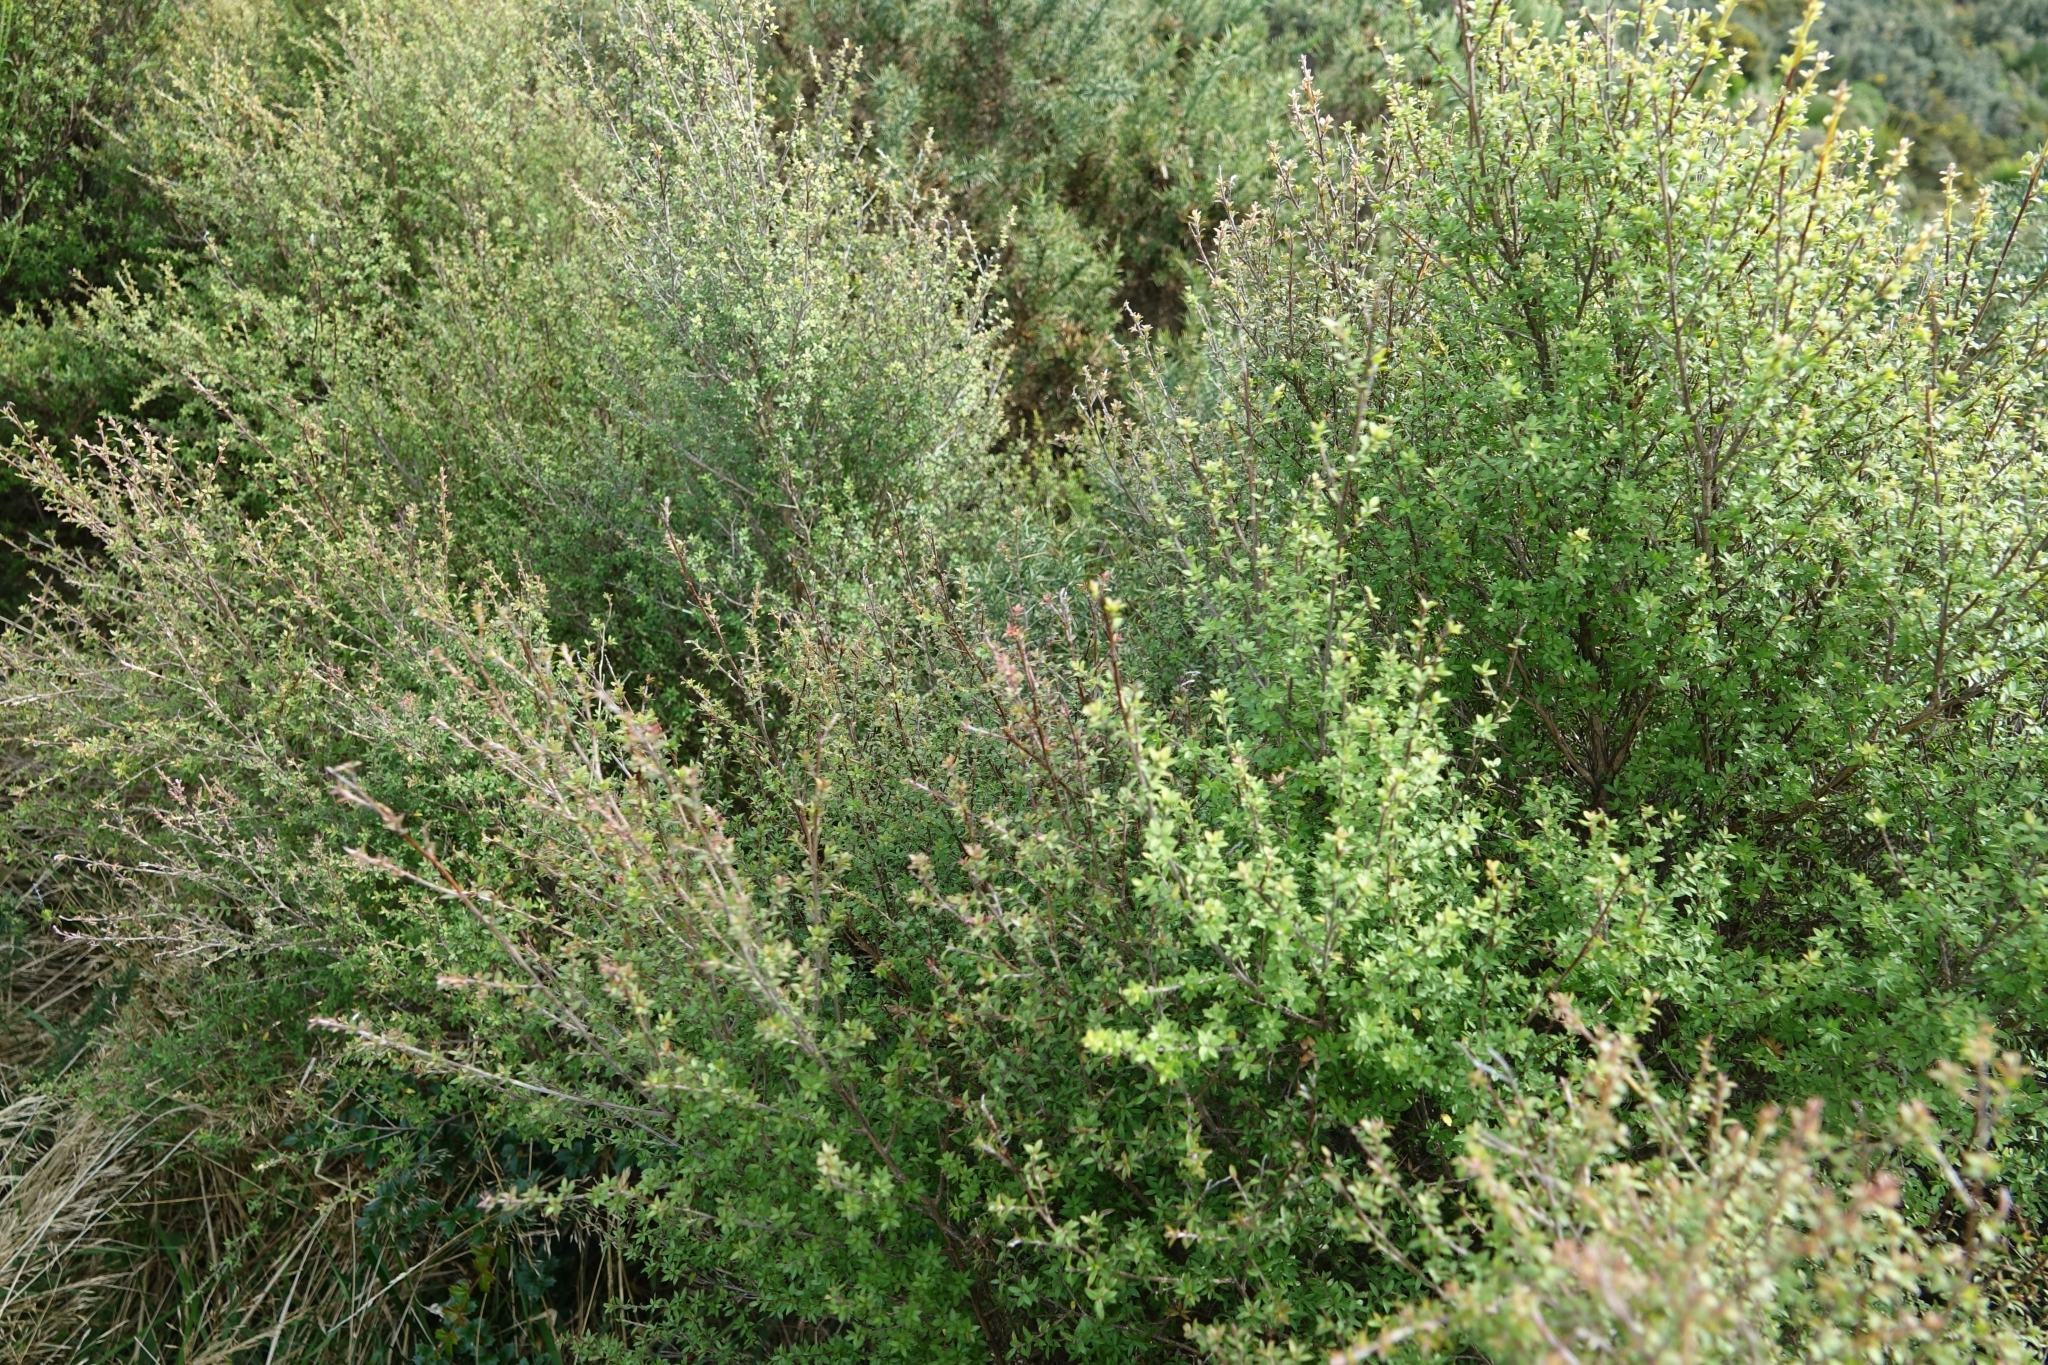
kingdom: Plantae
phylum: Tracheophyta
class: Magnoliopsida
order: Myrtales
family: Myrtaceae
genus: Leptospermum
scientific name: Leptospermum scoparium
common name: Broom tea-tree
